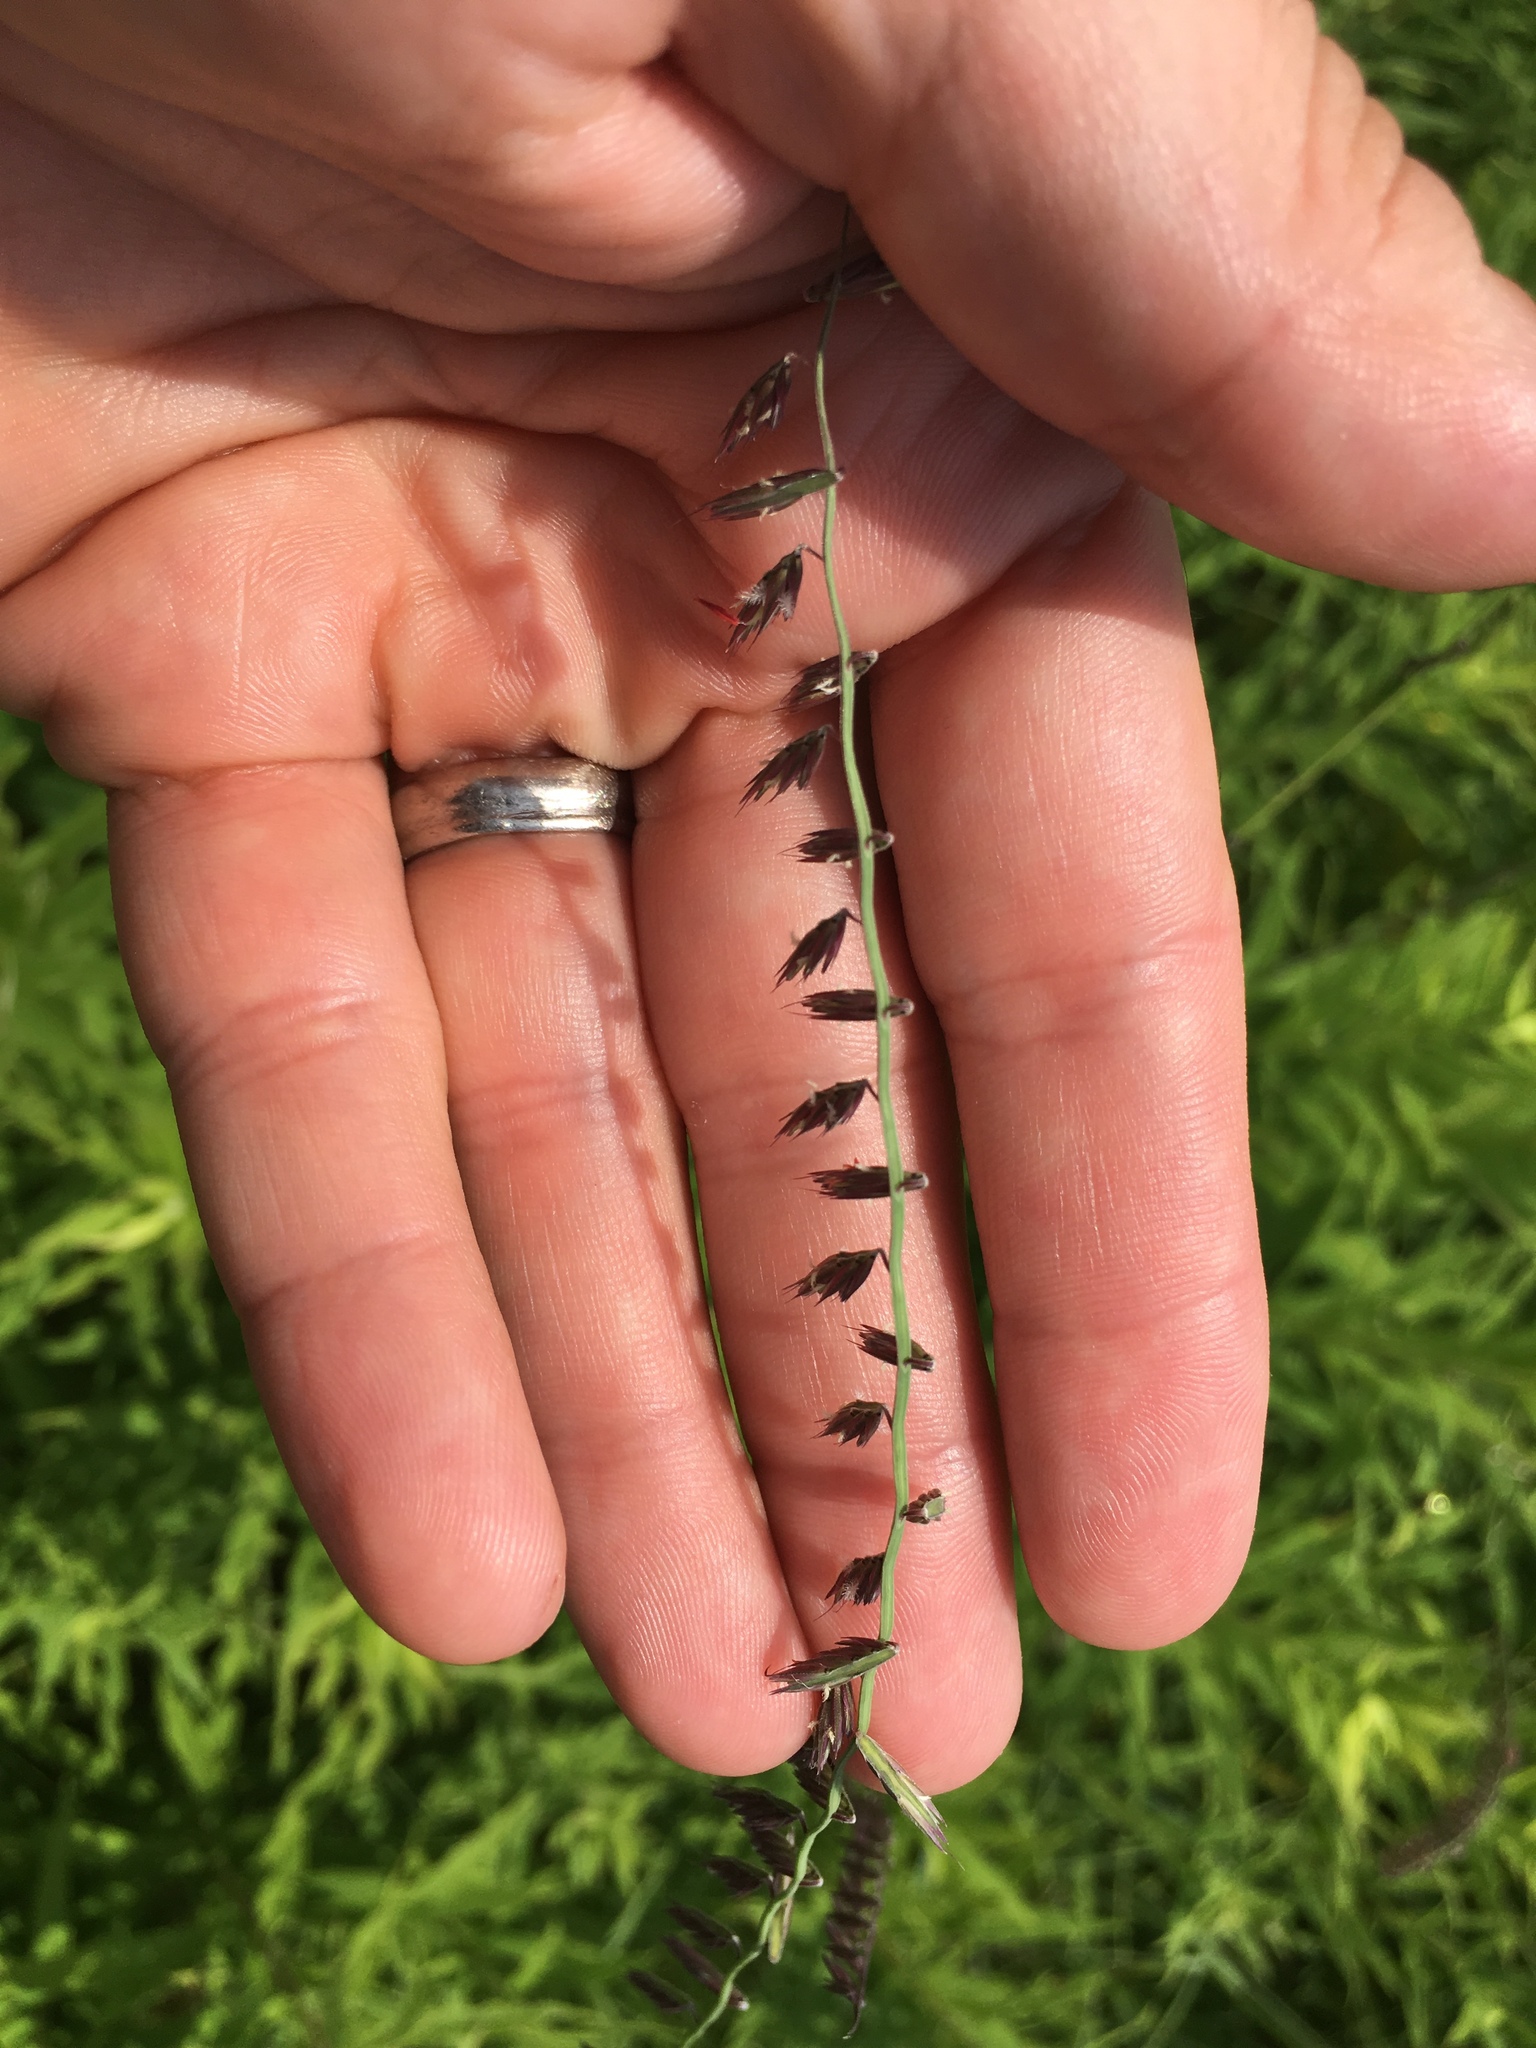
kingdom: Plantae
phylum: Tracheophyta
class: Liliopsida
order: Poales
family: Poaceae
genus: Bouteloua
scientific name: Bouteloua curtipendula
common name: Side-oats grama
